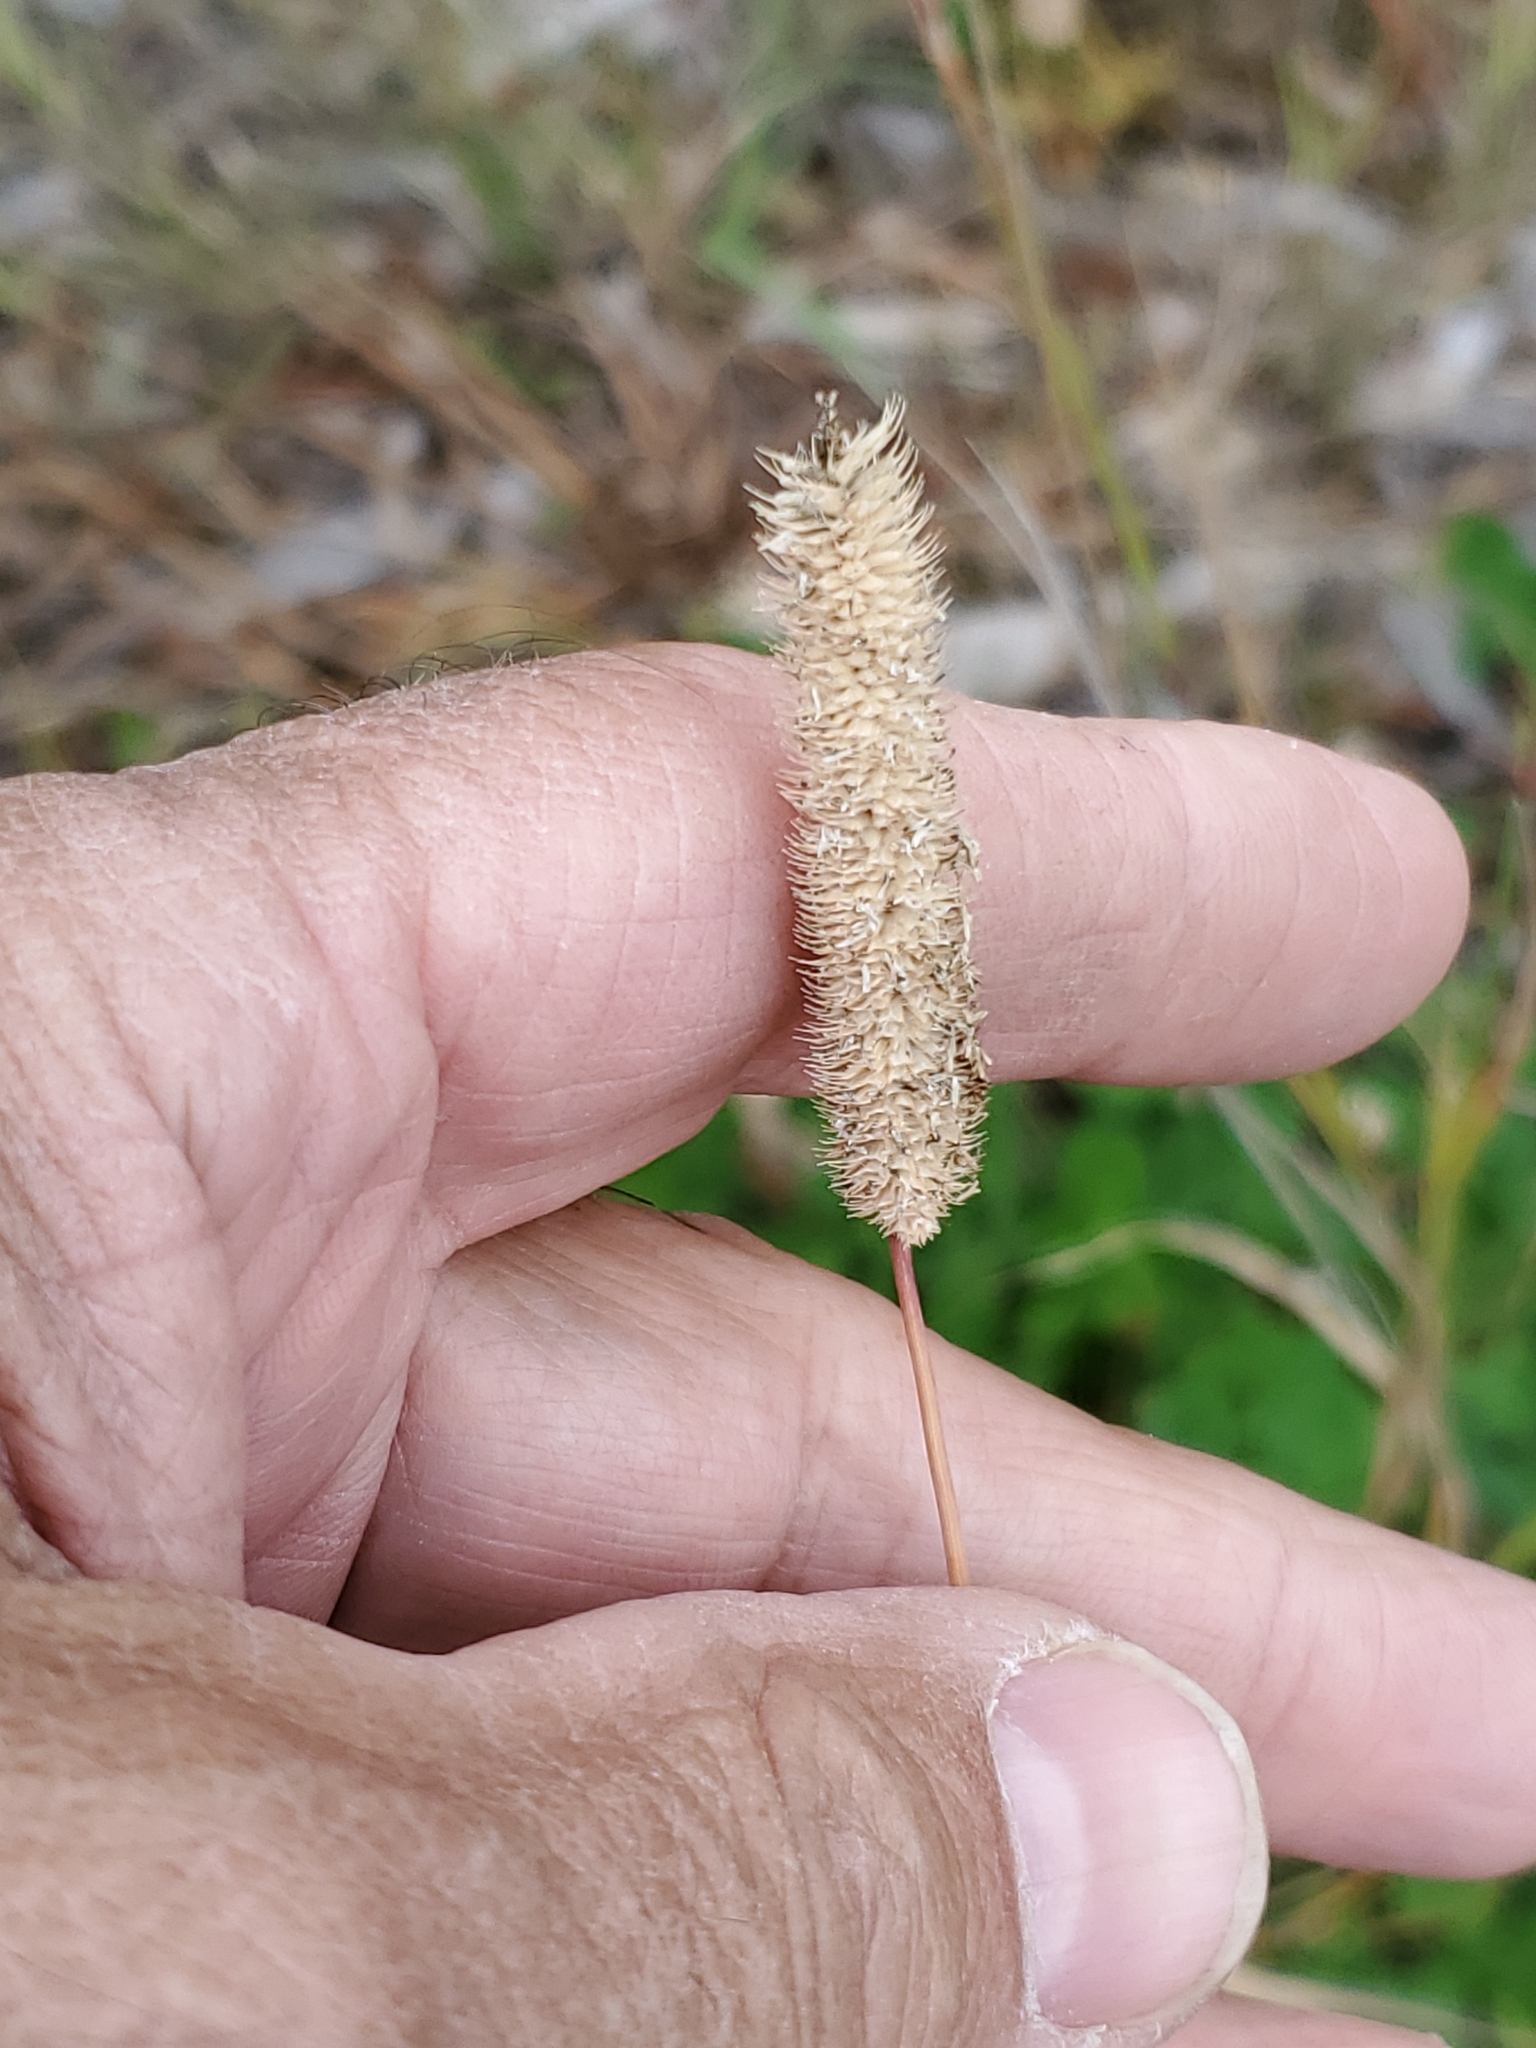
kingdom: Plantae
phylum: Tracheophyta
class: Liliopsida
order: Poales
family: Poaceae
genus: Phleum
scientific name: Phleum pratense
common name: Timothy grass
